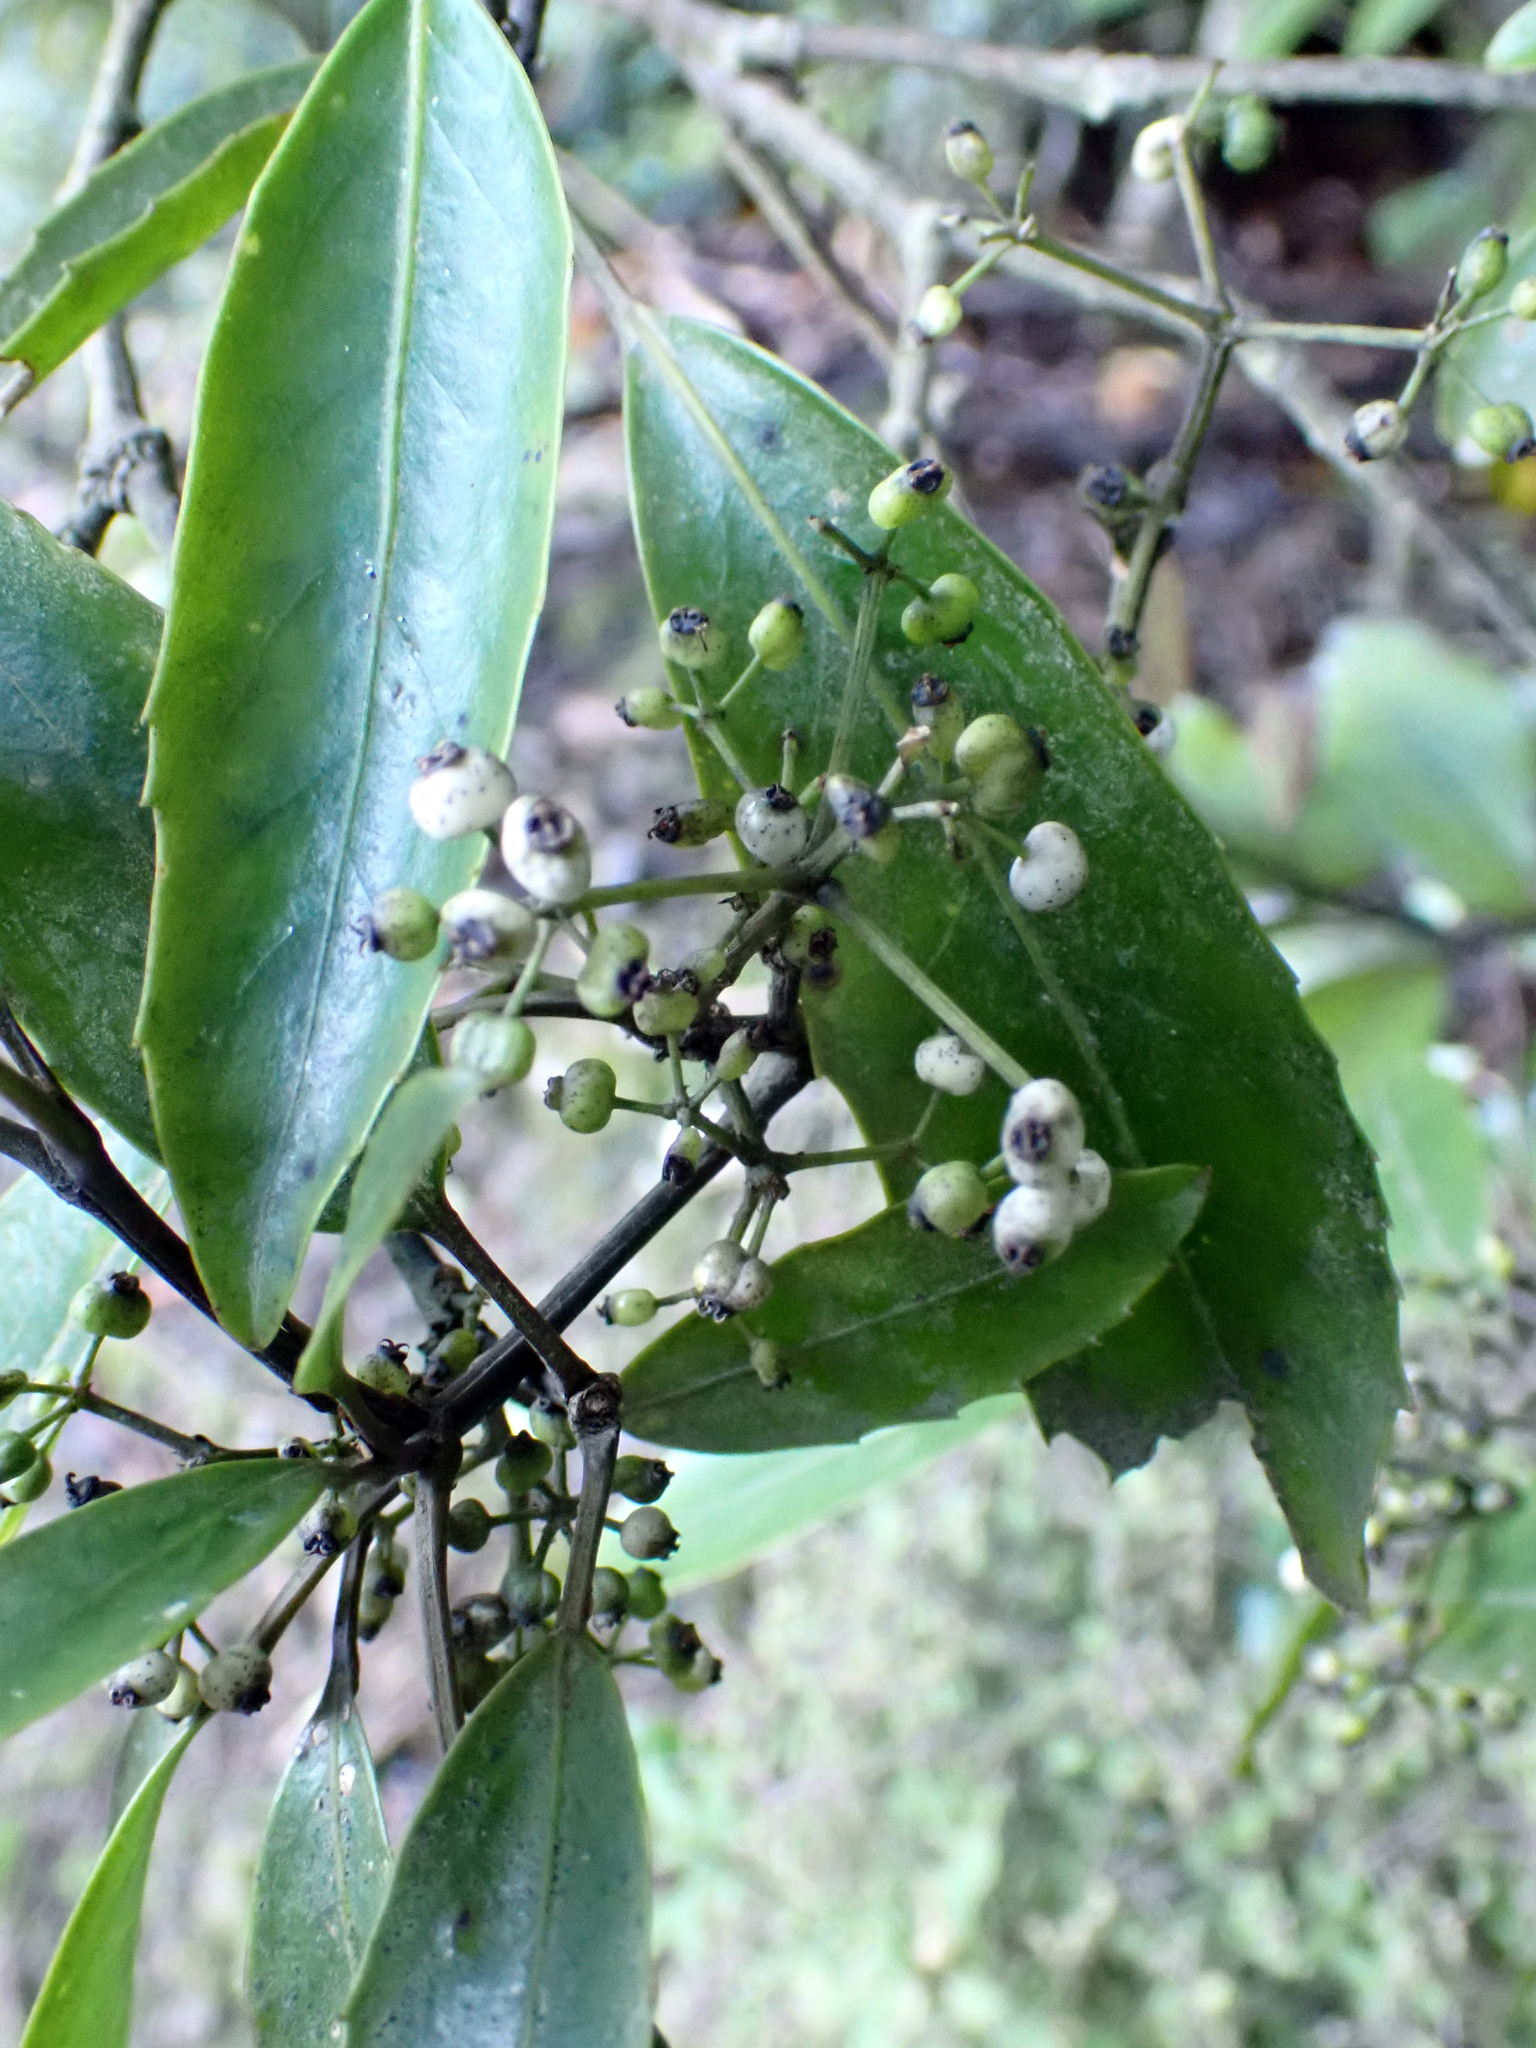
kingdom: Plantae
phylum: Tracheophyta
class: Magnoliopsida
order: Apiales
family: Araliaceae
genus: Raukaua
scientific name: Raukaua simplex
